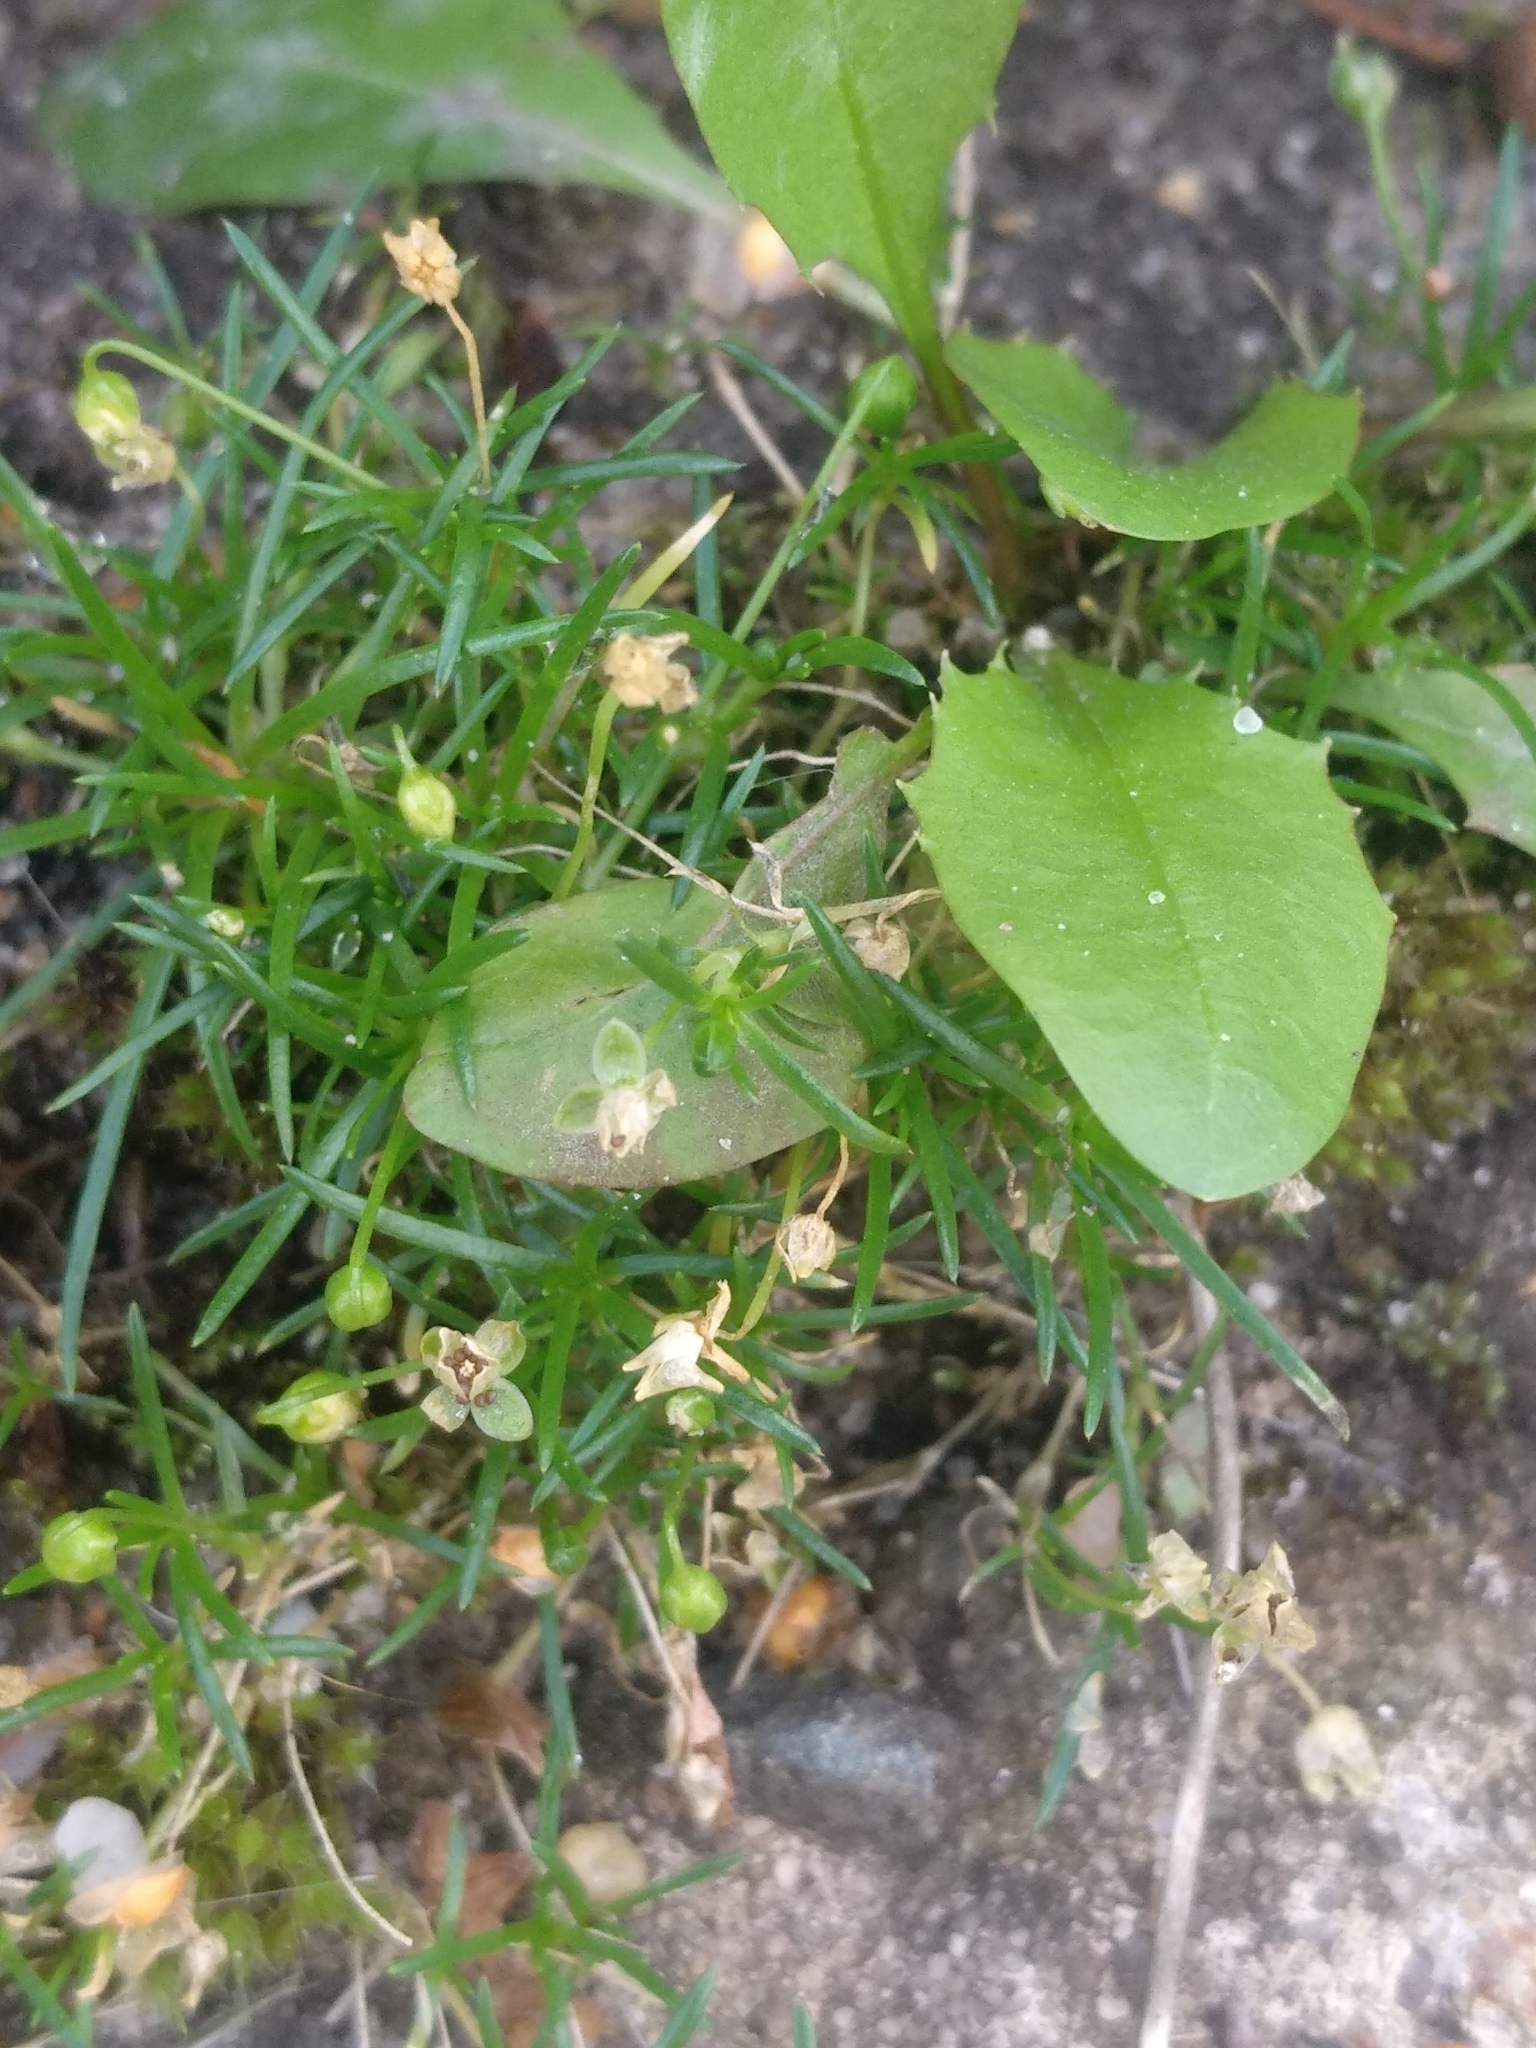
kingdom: Plantae
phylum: Tracheophyta
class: Magnoliopsida
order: Caryophyllales
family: Caryophyllaceae
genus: Sagina
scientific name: Sagina procumbens
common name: Procumbent pearlwort
